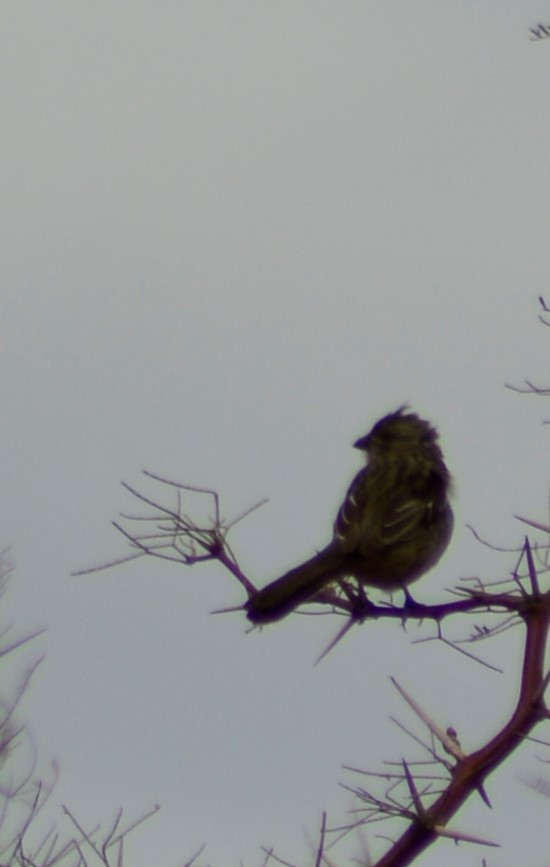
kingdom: Animalia
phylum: Chordata
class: Aves
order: Passeriformes
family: Cotingidae
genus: Phytotoma
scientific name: Phytotoma rutila
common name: White-tipped plantcutter
